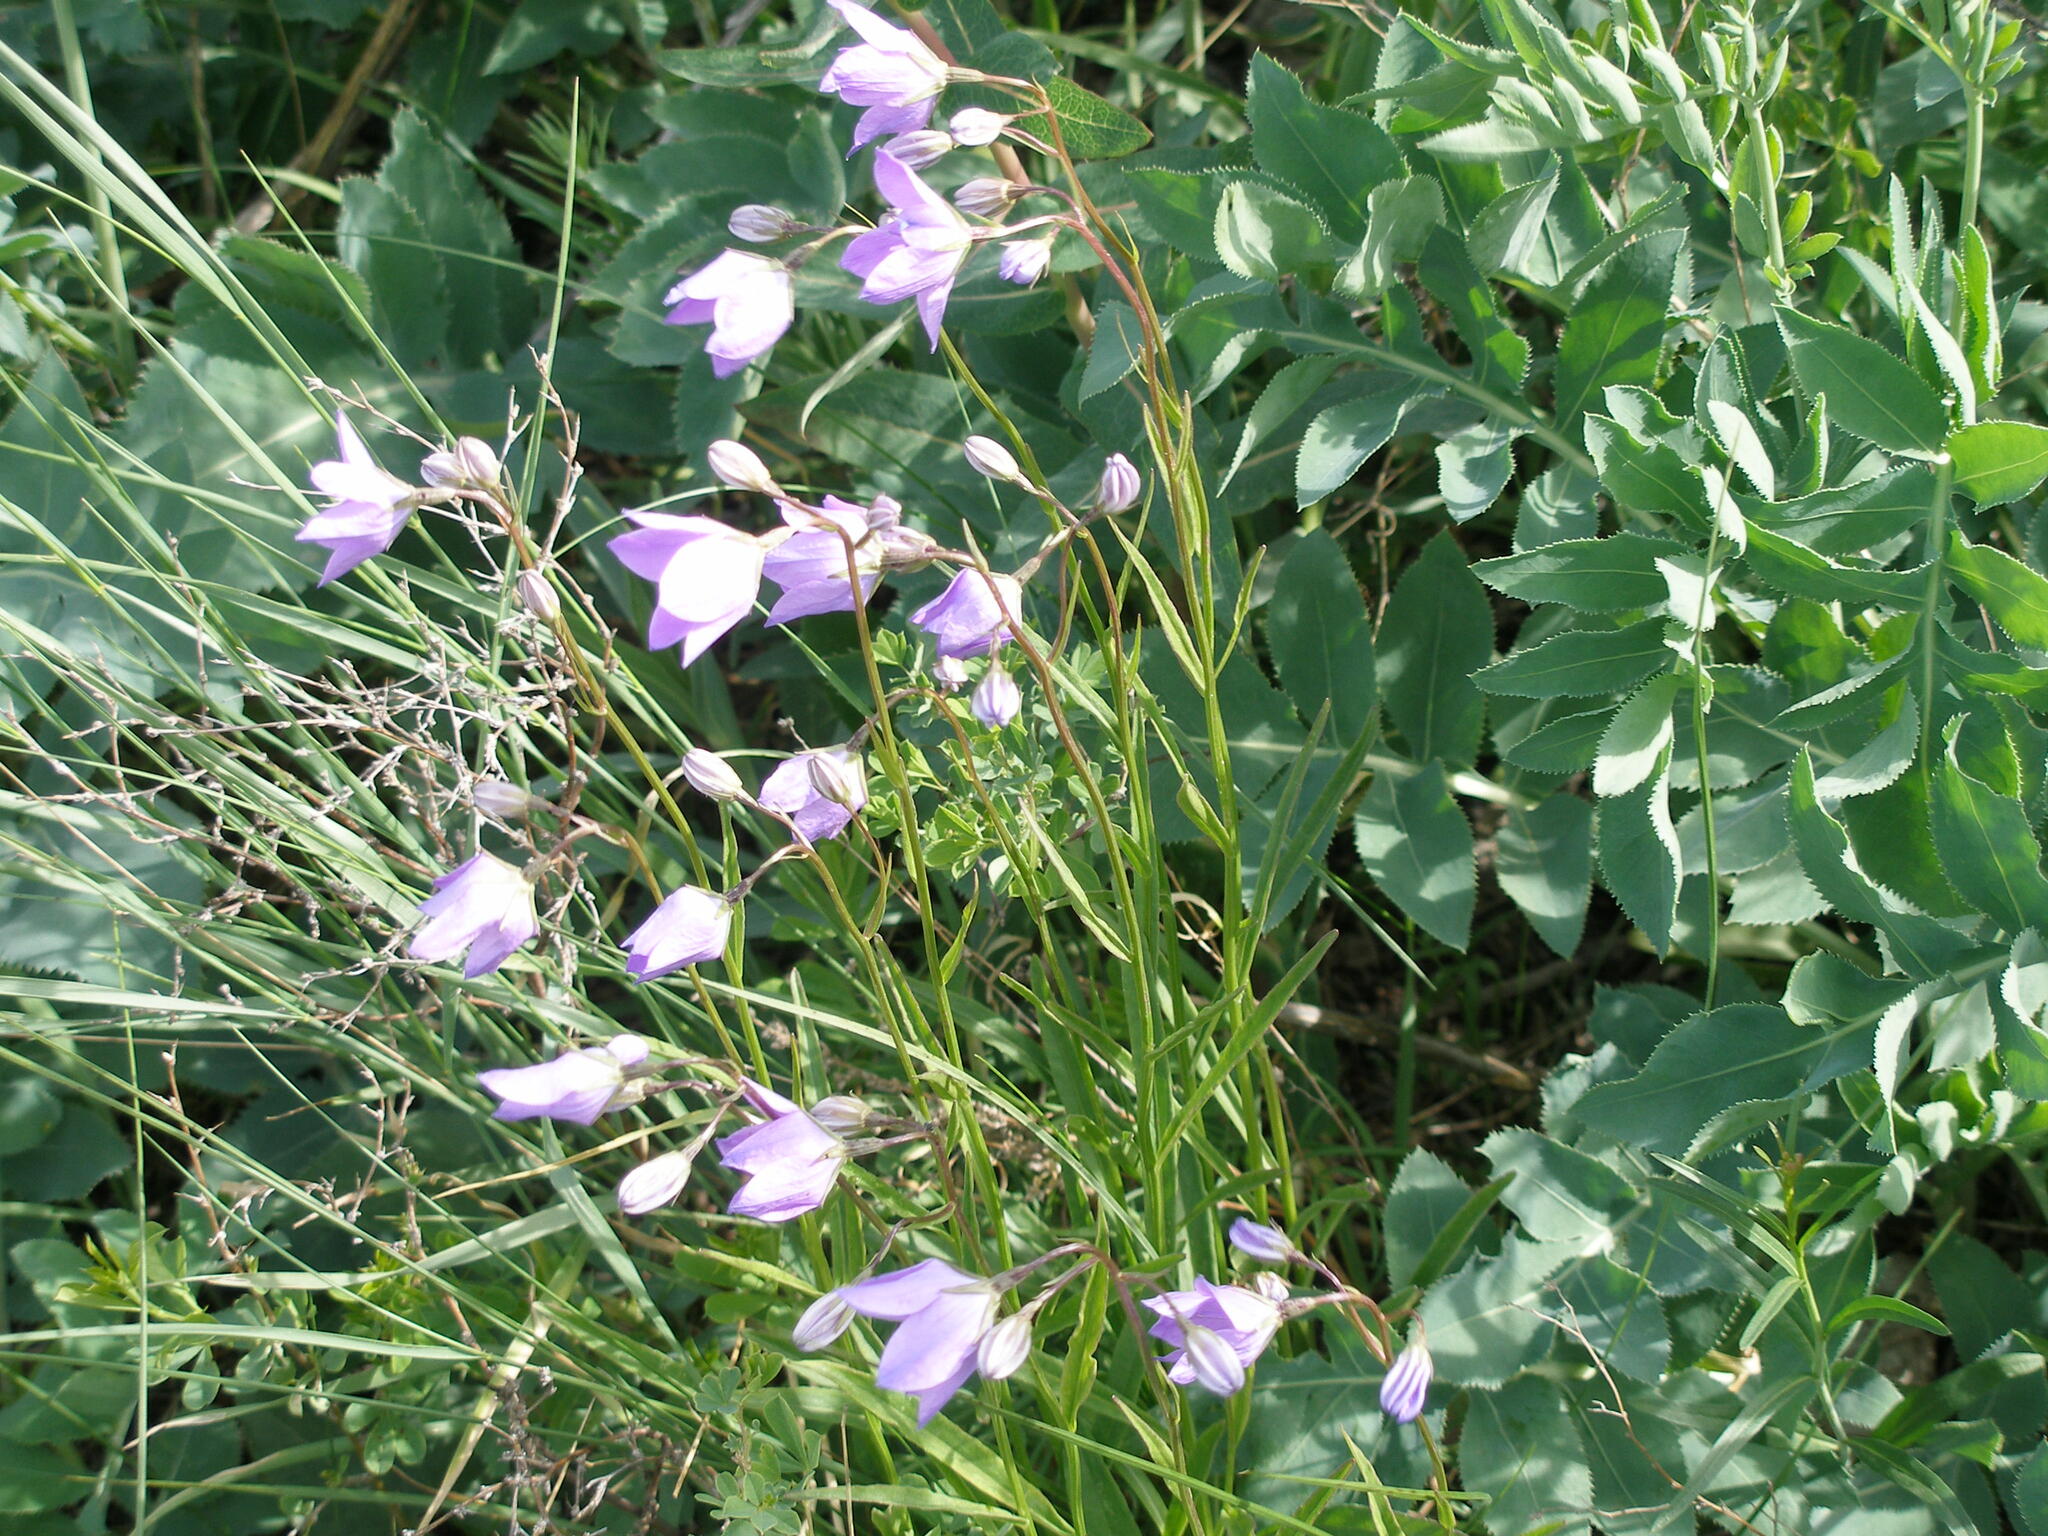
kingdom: Plantae
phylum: Tracheophyta
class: Magnoliopsida
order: Asterales
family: Campanulaceae
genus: Campanula
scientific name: Campanula stevenii
